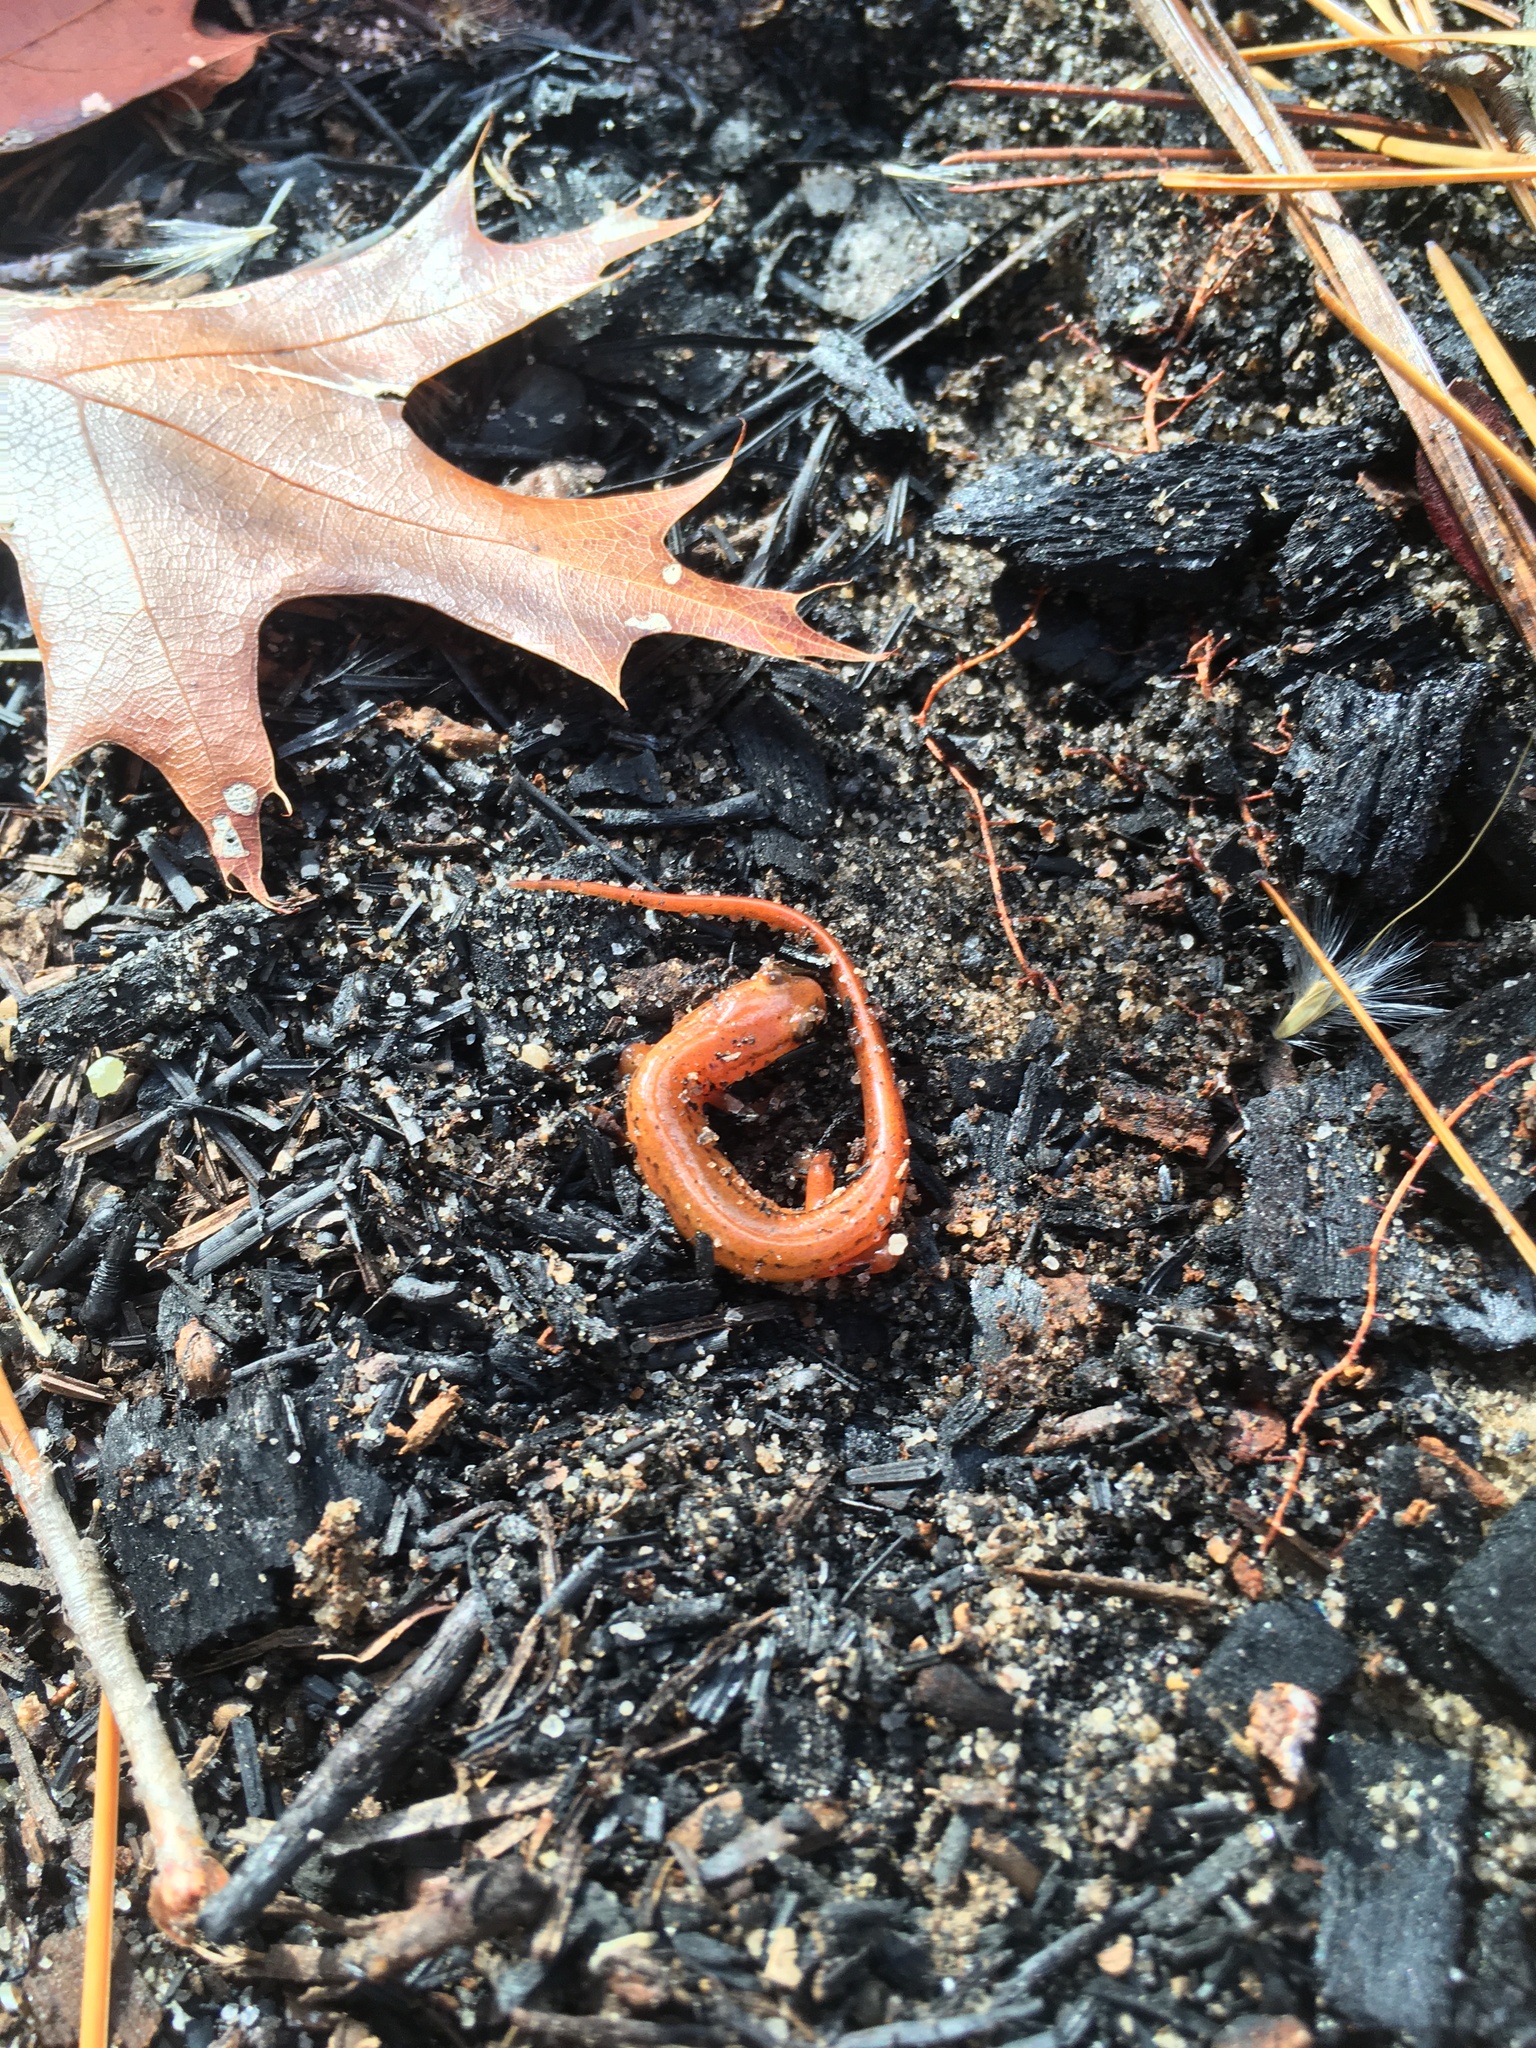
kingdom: Animalia
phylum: Chordata
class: Amphibia
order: Caudata
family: Plethodontidae
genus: Eurycea
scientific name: Eurycea arenicola
